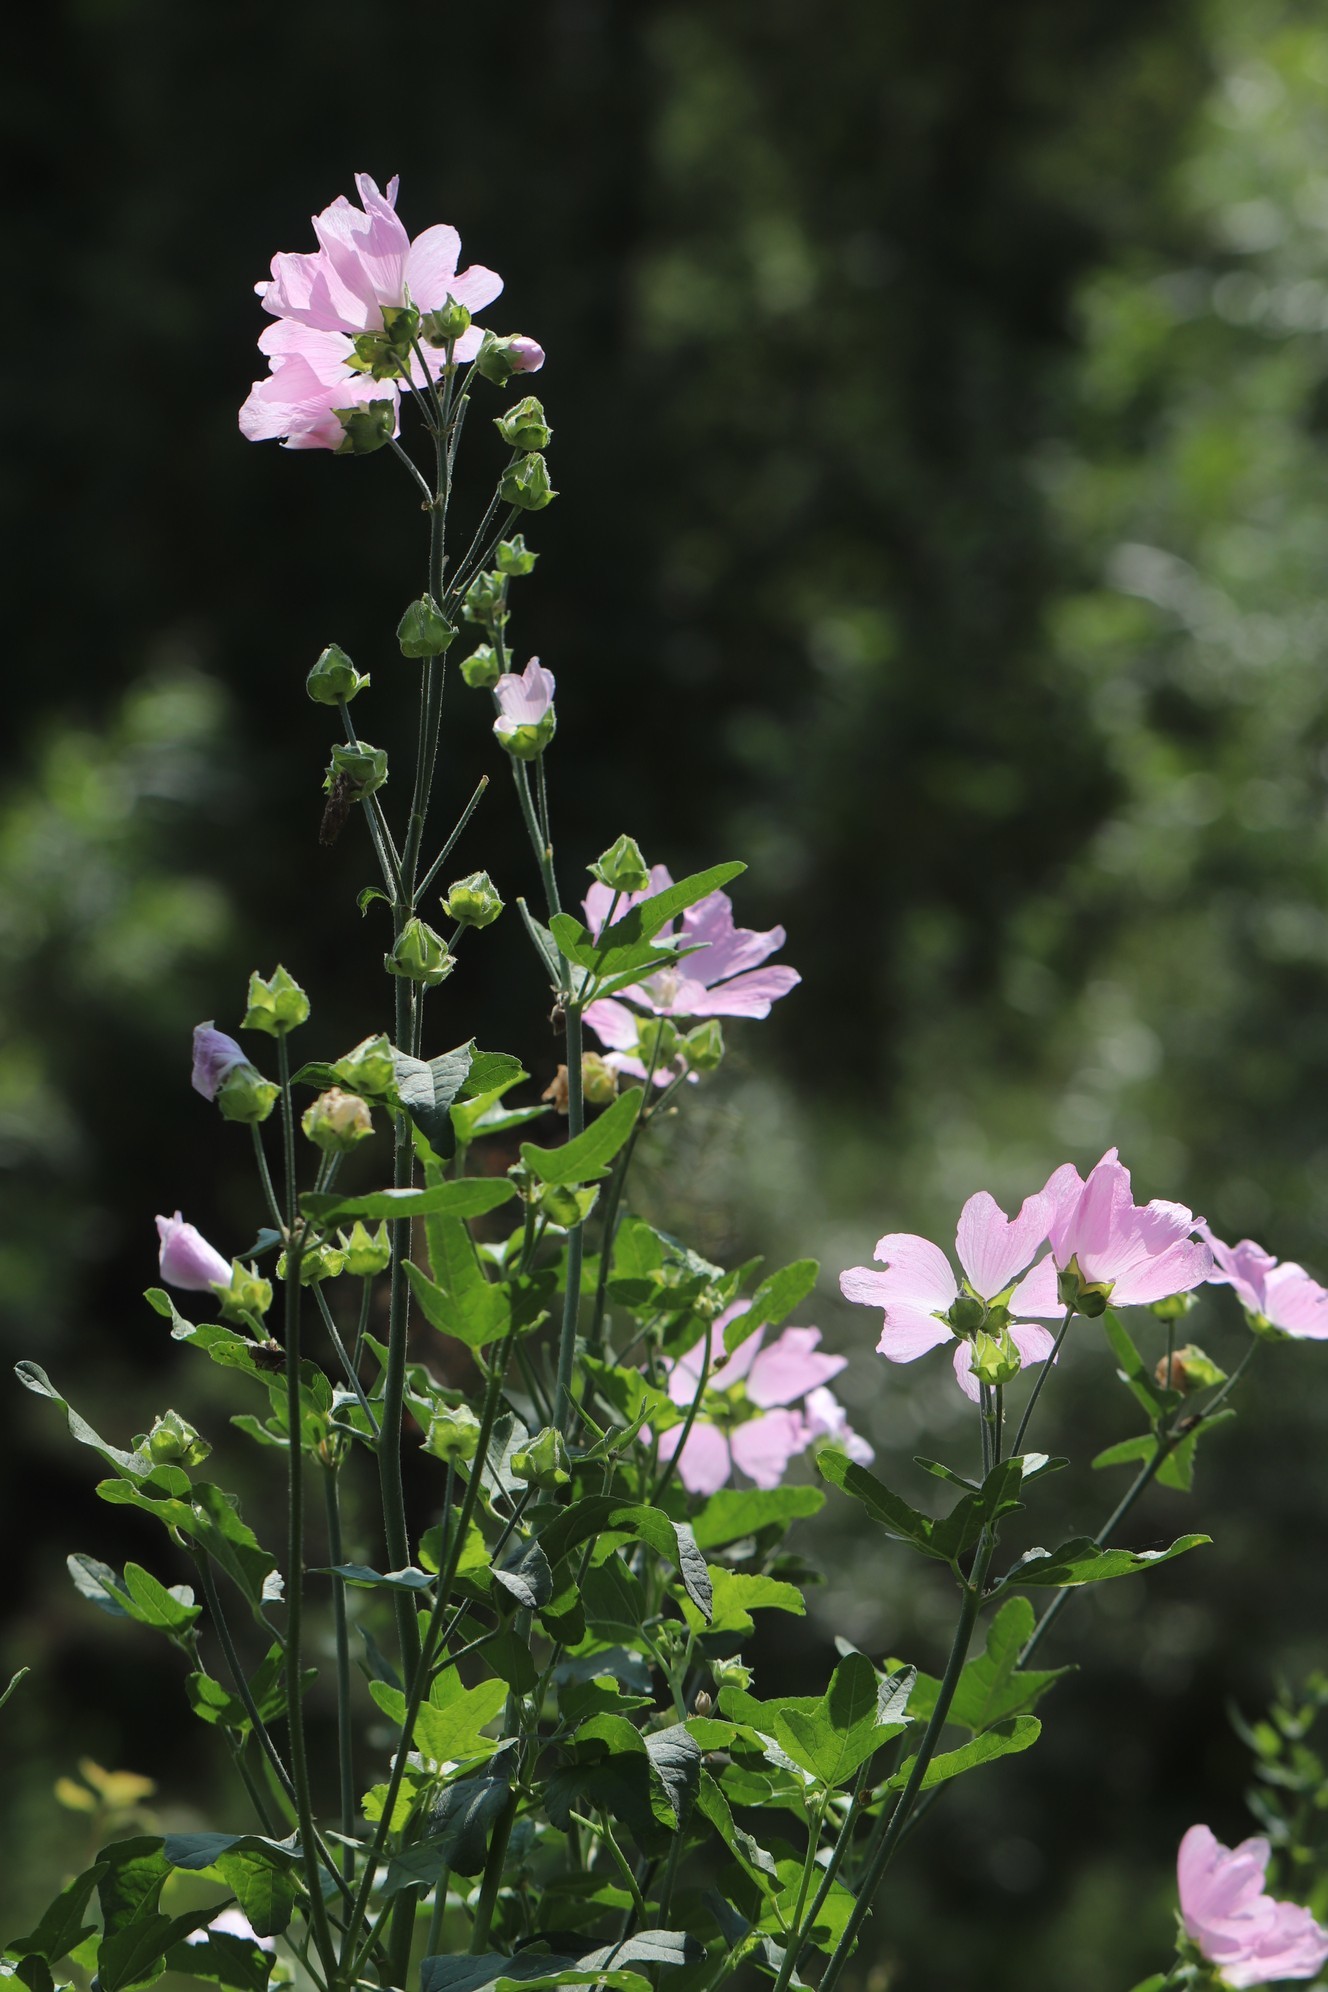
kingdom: Plantae
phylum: Tracheophyta
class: Magnoliopsida
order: Malvales
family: Malvaceae
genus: Malva
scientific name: Malva thuringiaca
